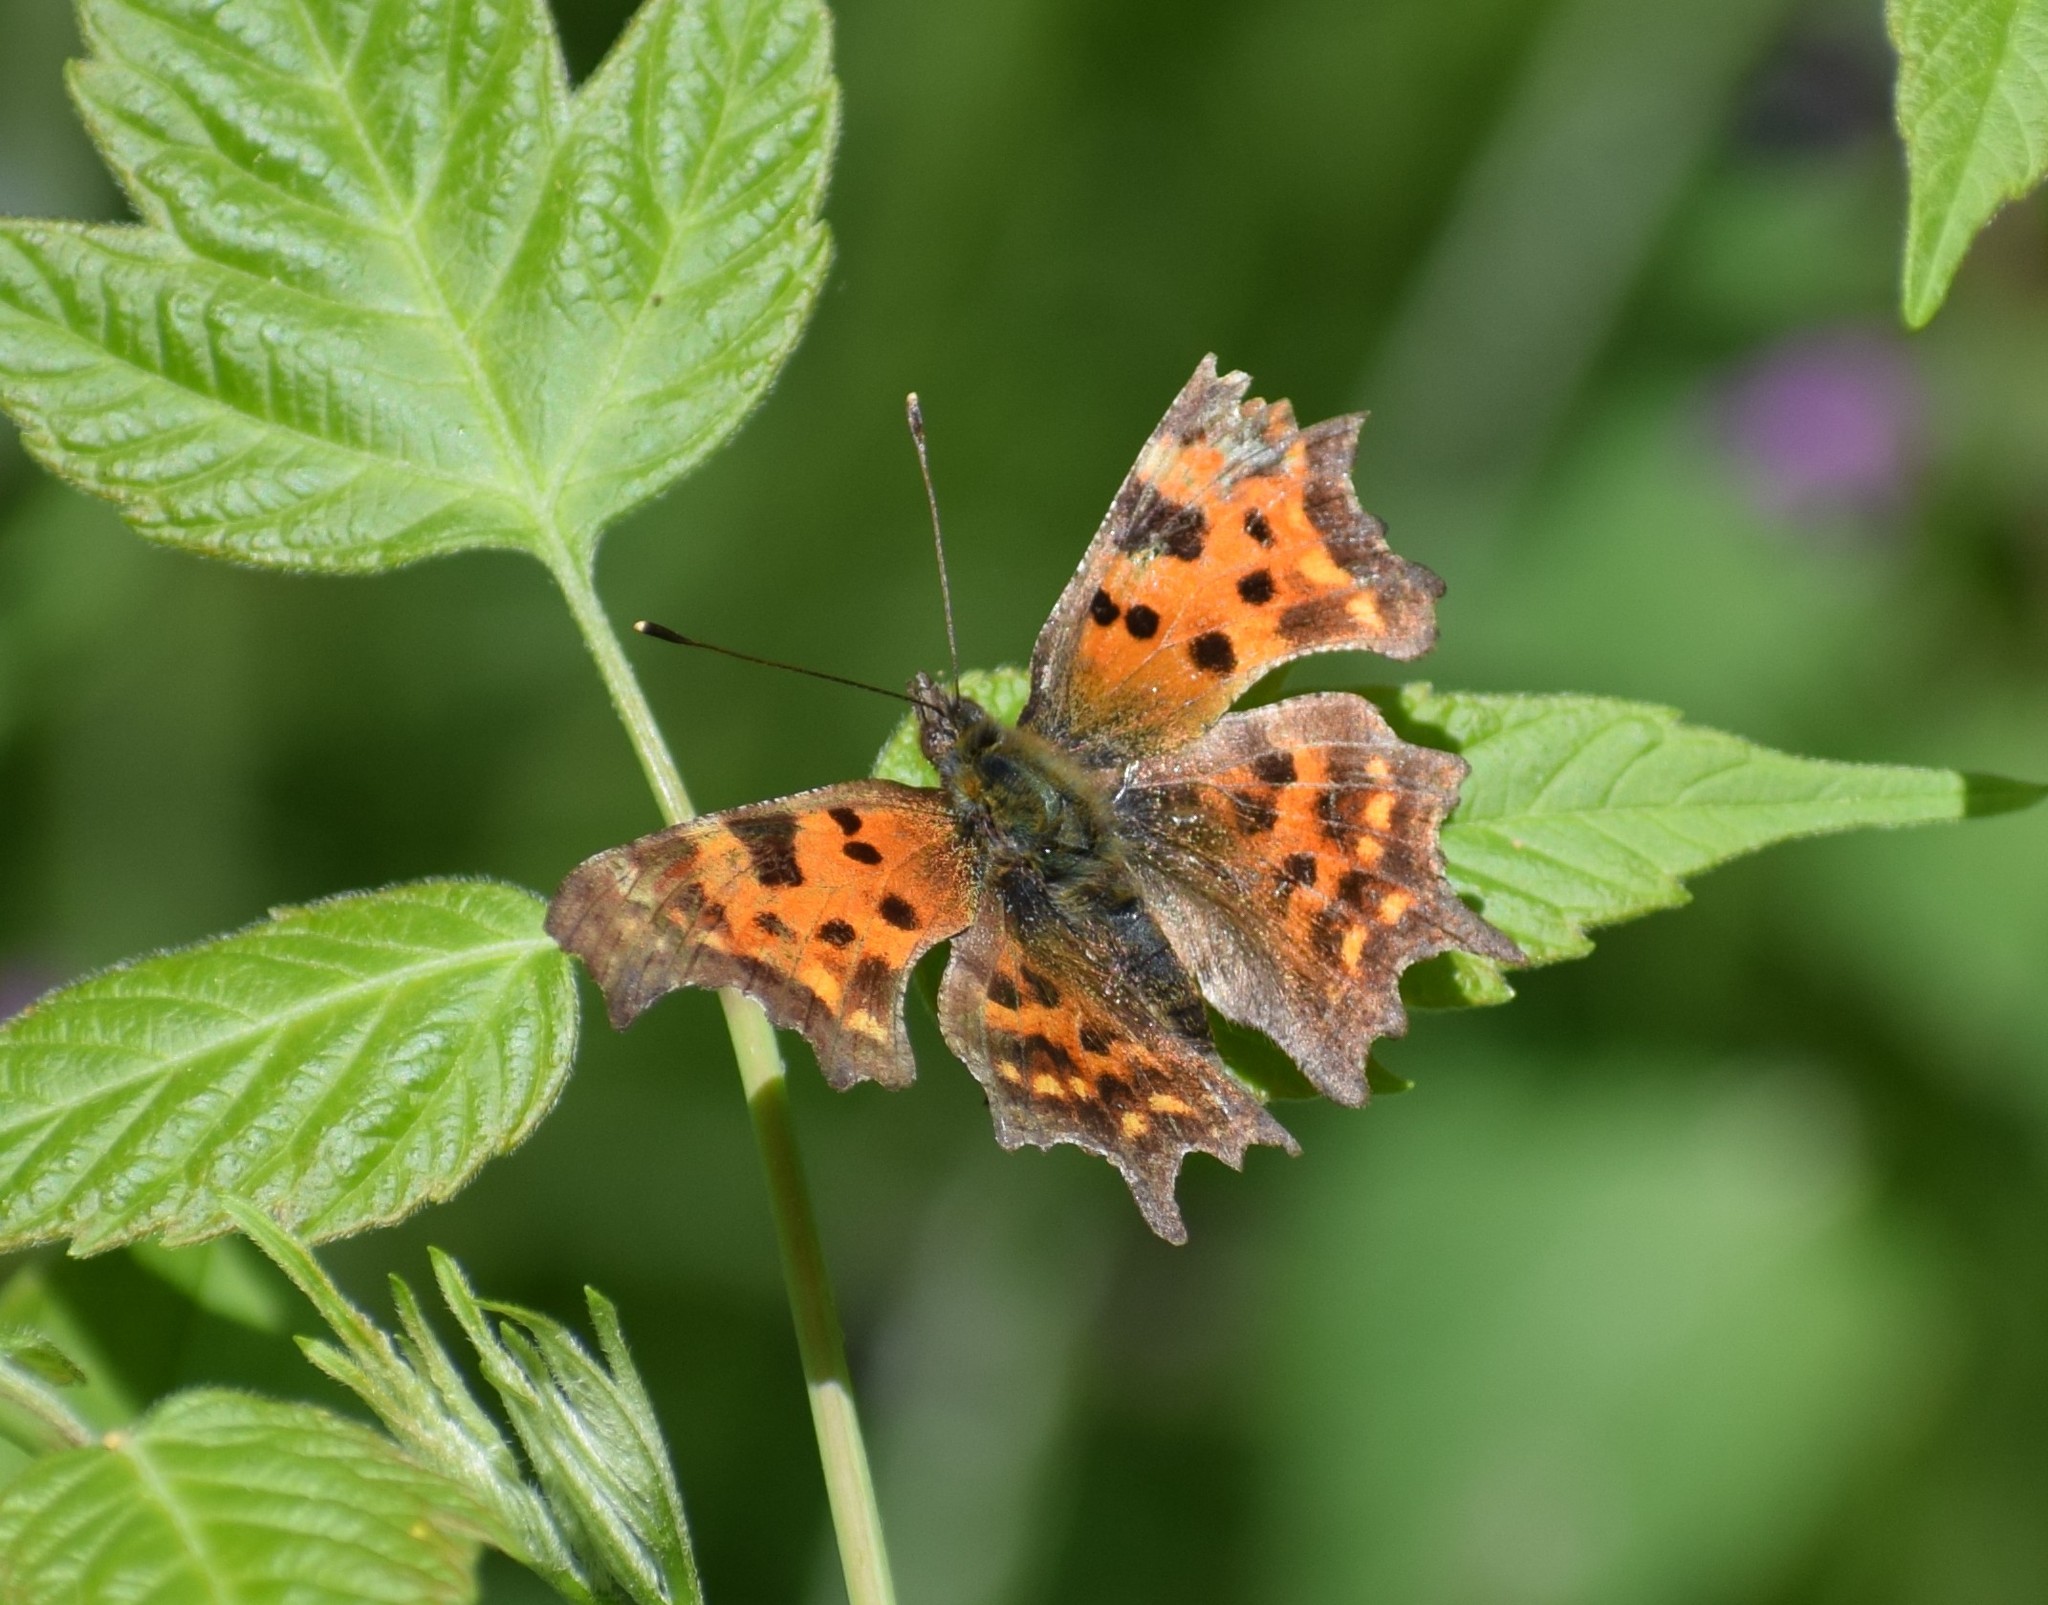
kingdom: Animalia
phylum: Arthropoda
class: Insecta
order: Lepidoptera
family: Nymphalidae
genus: Polygonia
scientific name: Polygonia c-album
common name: Comma
